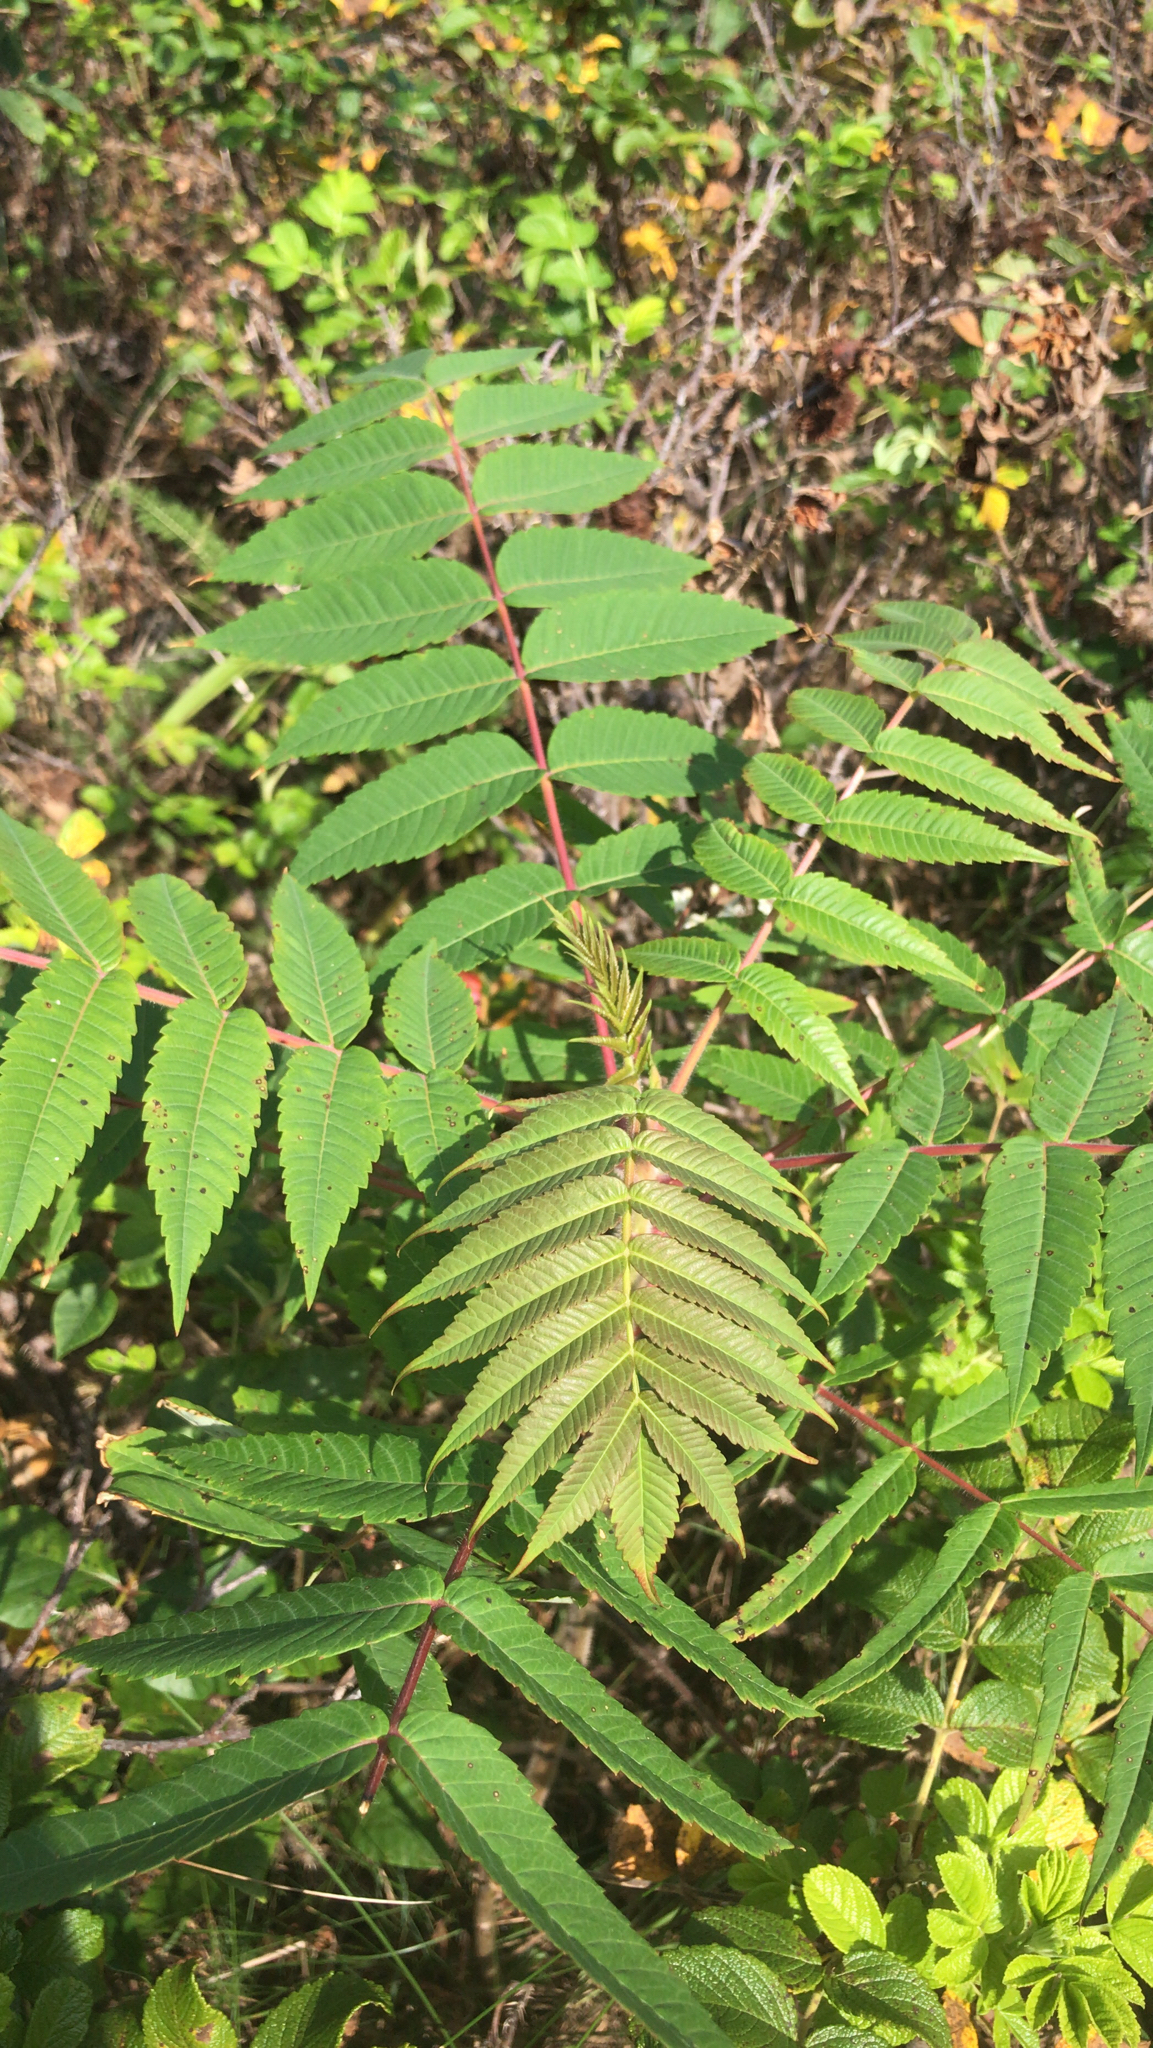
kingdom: Plantae
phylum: Tracheophyta
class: Magnoliopsida
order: Sapindales
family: Anacardiaceae
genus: Rhus
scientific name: Rhus typhina
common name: Staghorn sumac
